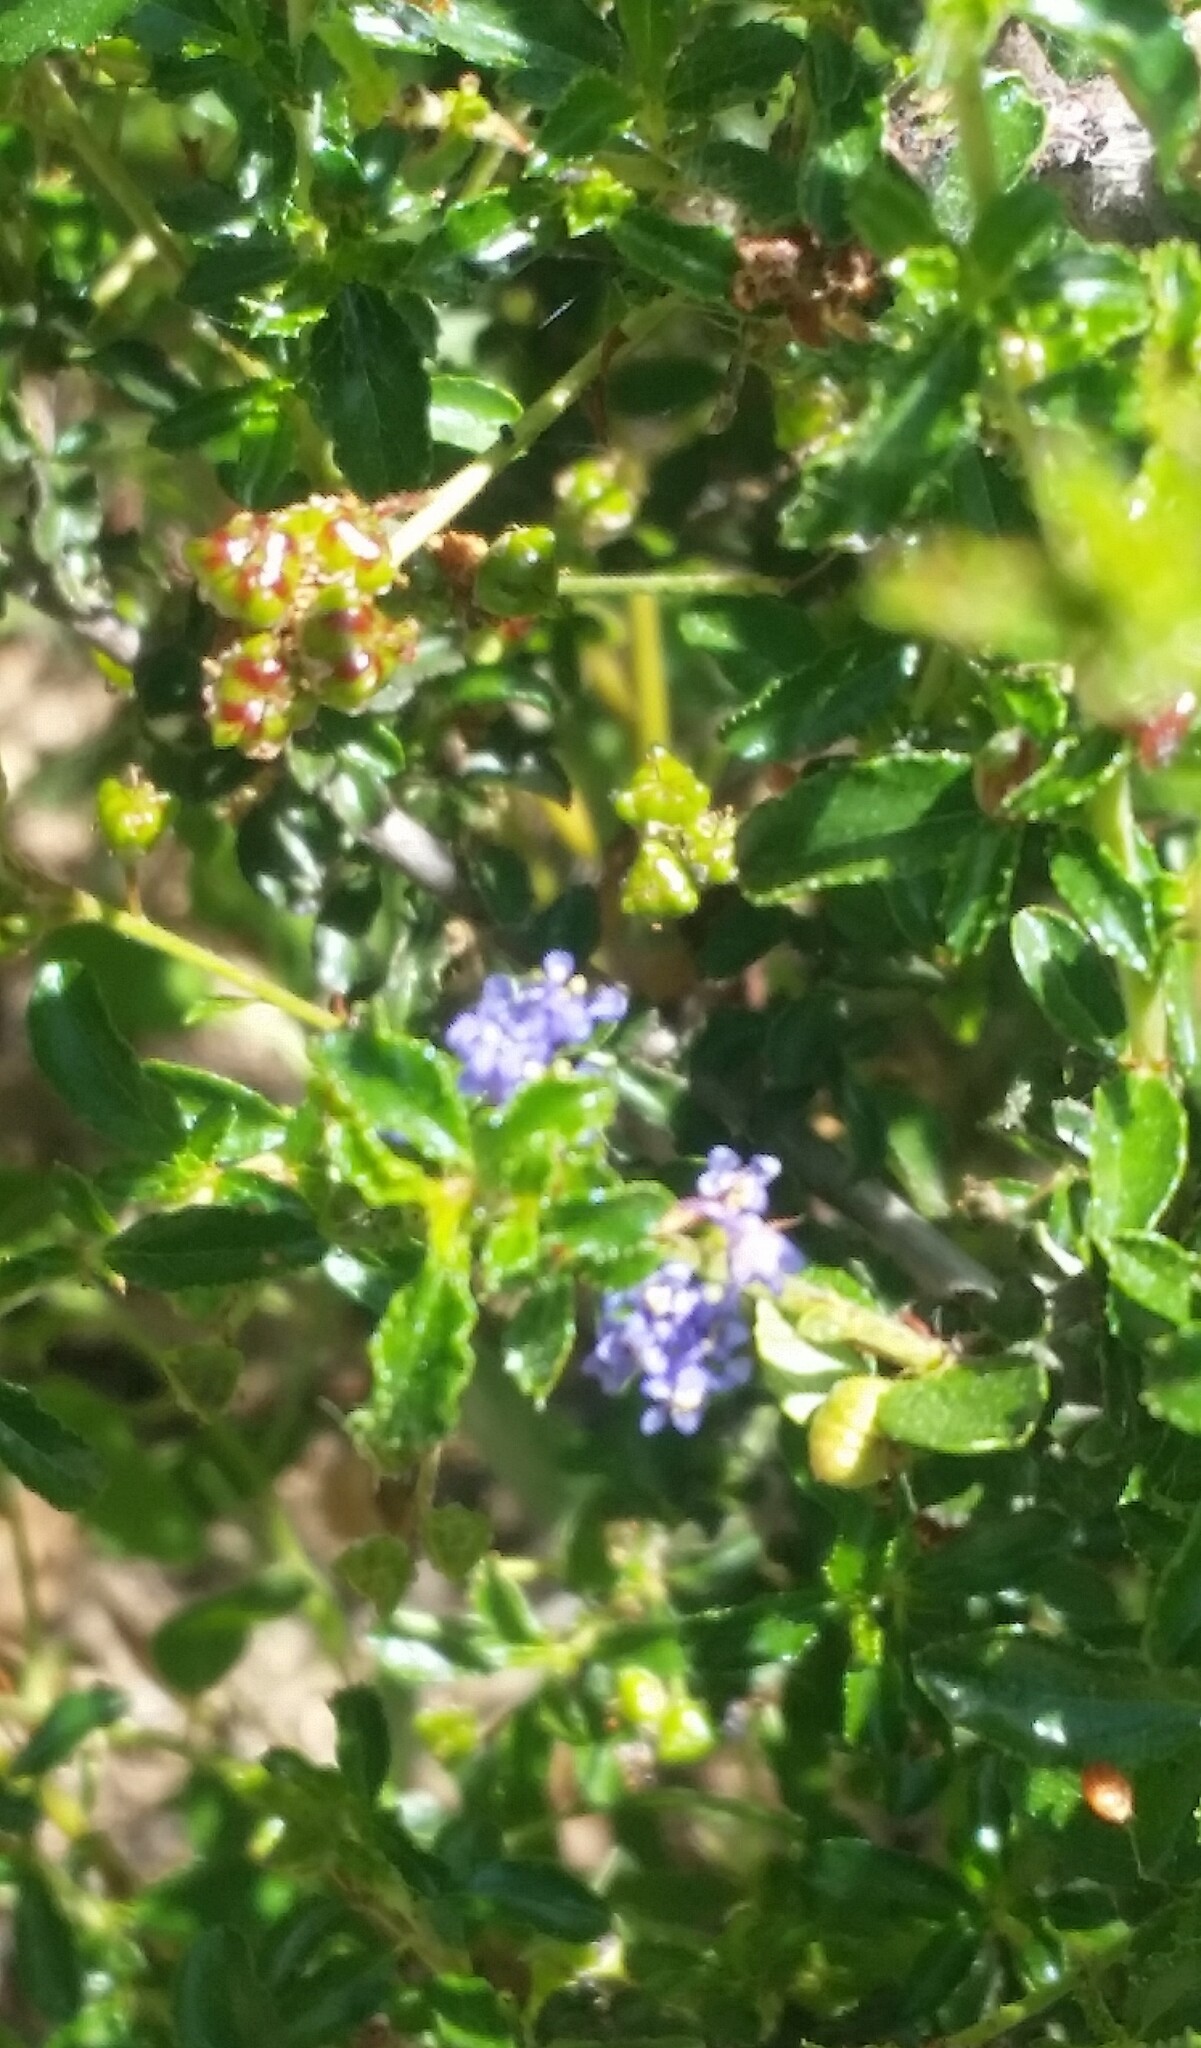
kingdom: Plantae
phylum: Tracheophyta
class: Magnoliopsida
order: Rosales
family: Rhamnaceae
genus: Ceanothus
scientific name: Ceanothus foliosus
